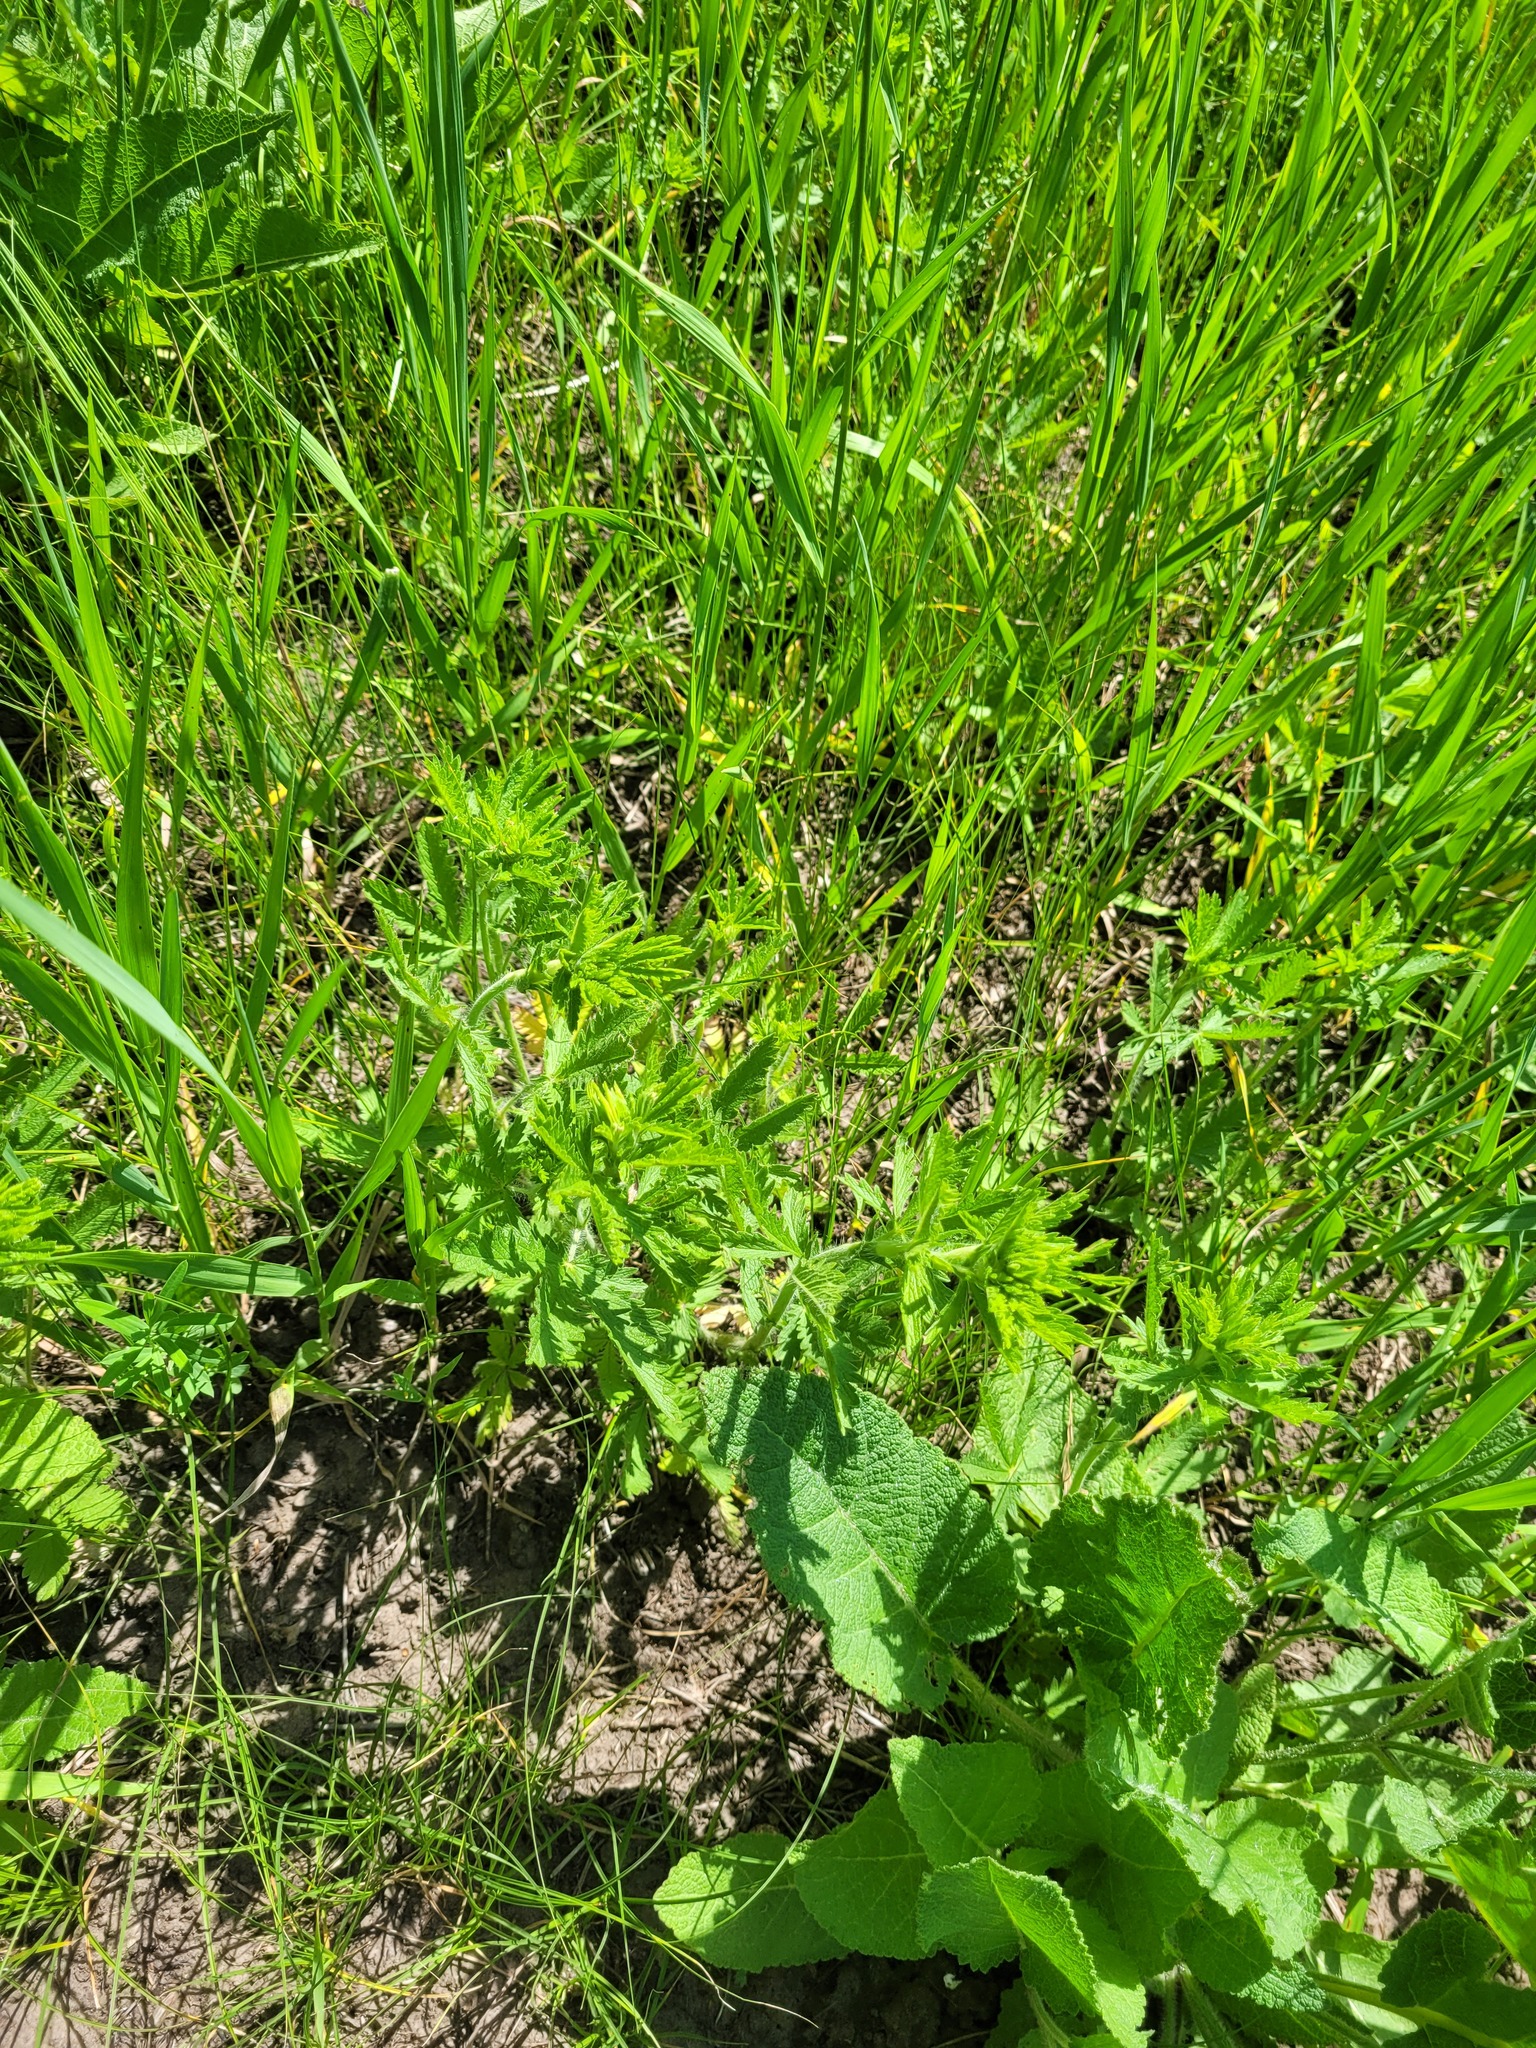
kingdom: Plantae
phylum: Tracheophyta
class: Magnoliopsida
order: Rosales
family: Rosaceae
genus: Potentilla
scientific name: Potentilla recta
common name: Sulphur cinquefoil
